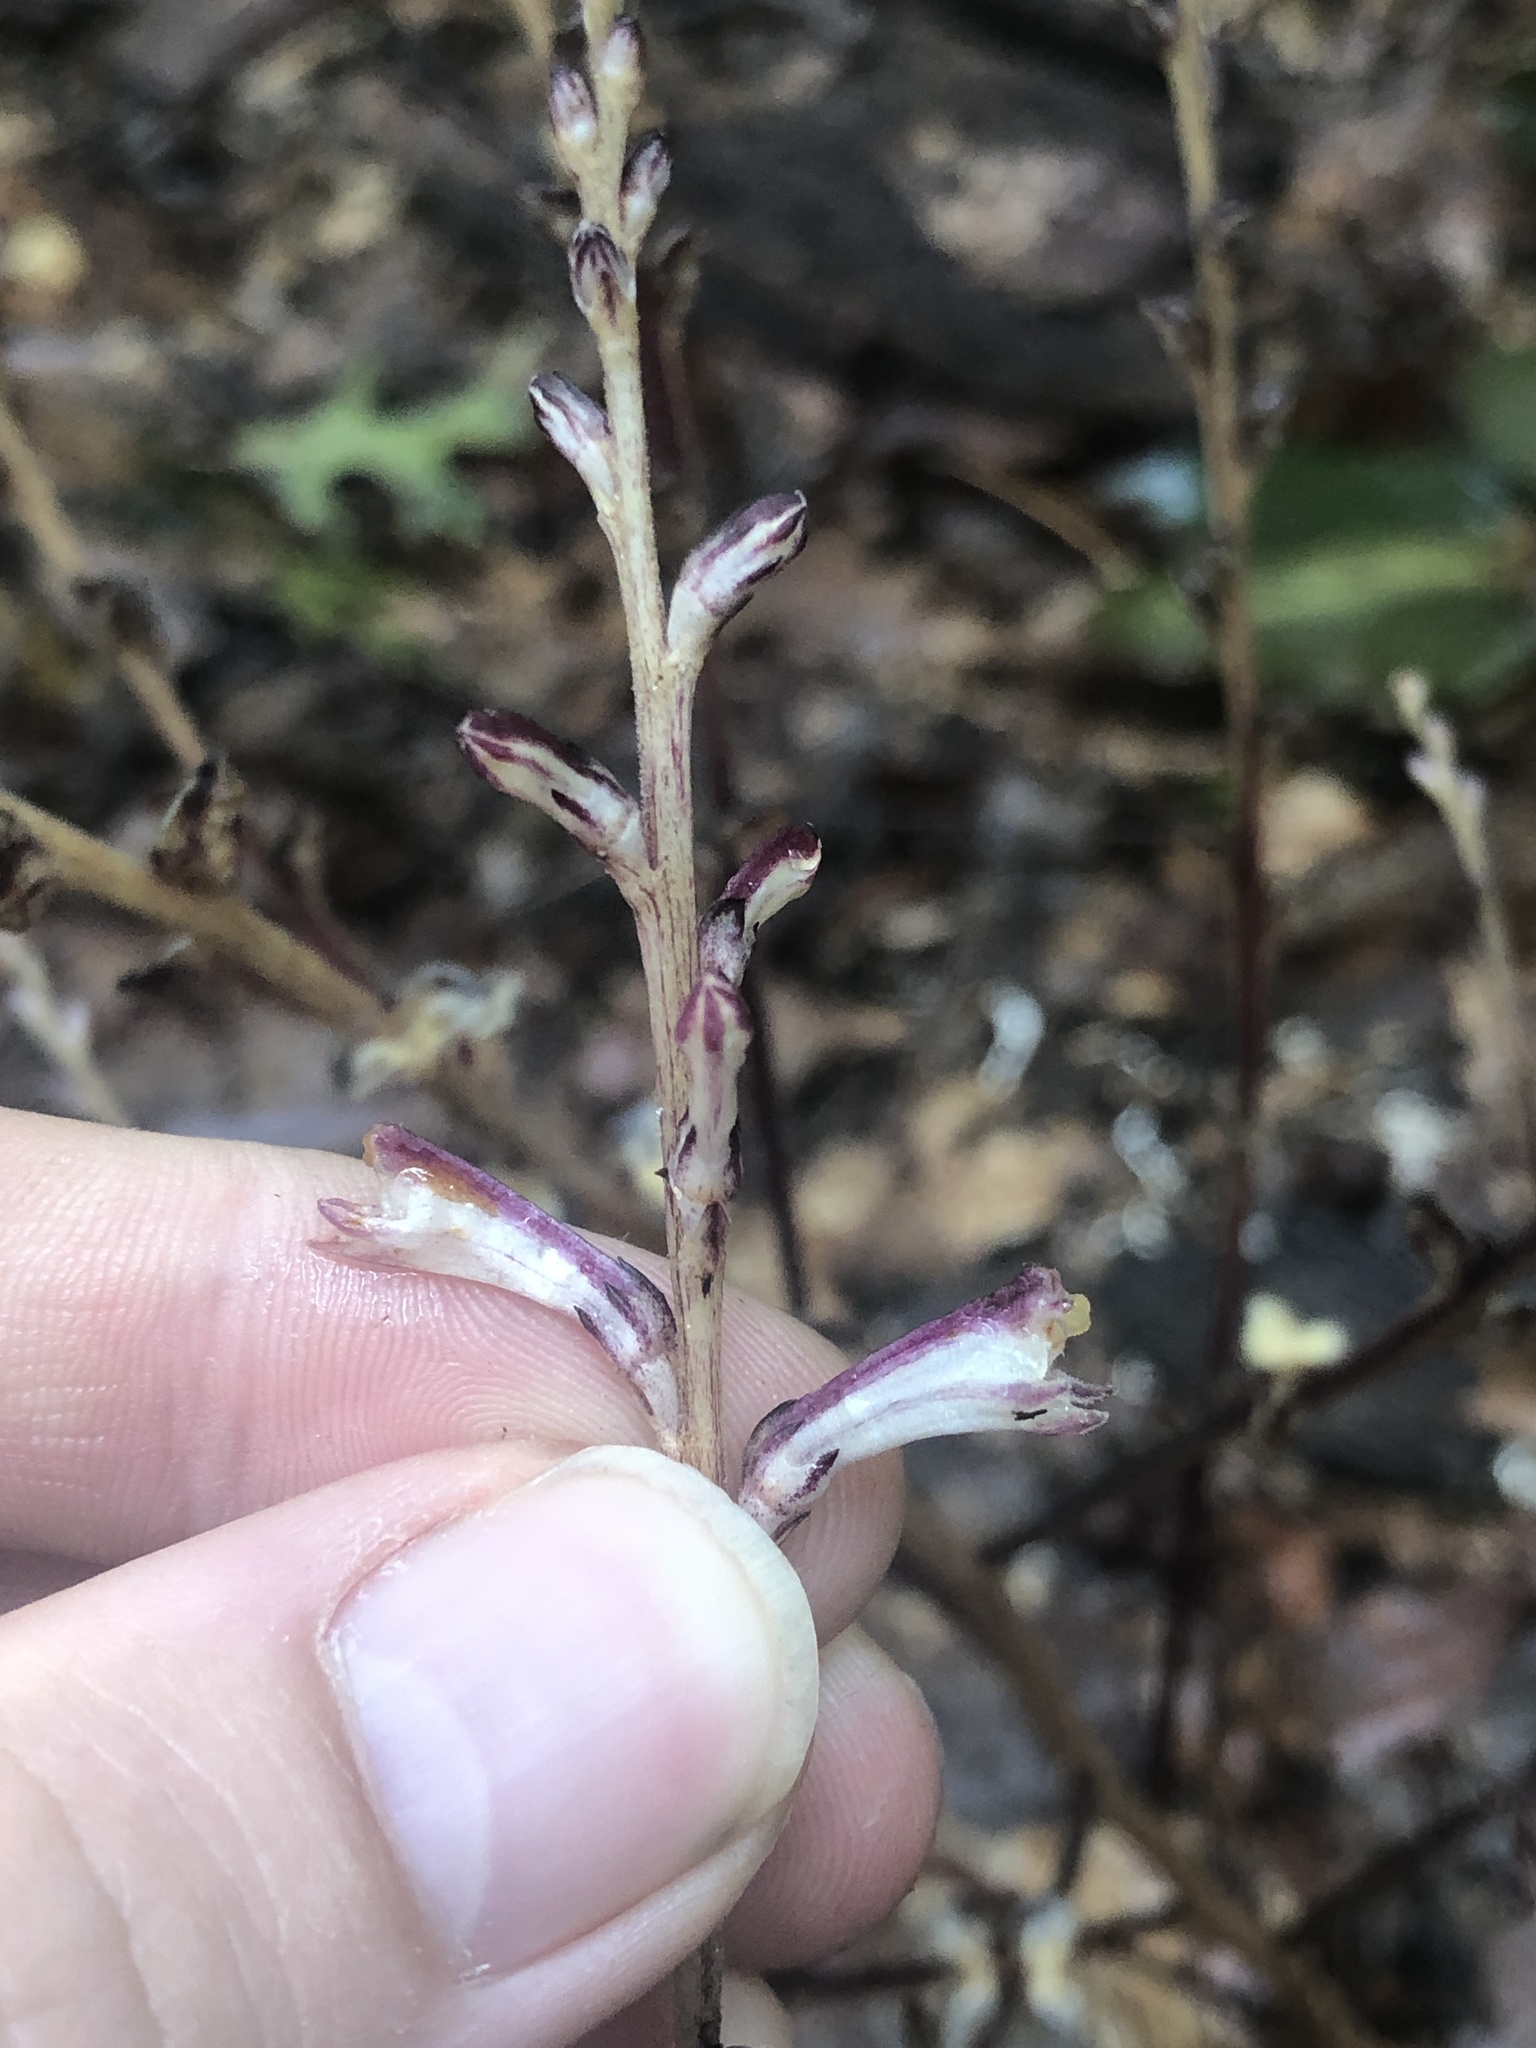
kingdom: Plantae
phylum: Tracheophyta
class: Magnoliopsida
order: Lamiales
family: Orobanchaceae
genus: Epifagus
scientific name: Epifagus virginiana
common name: Beechdrops
